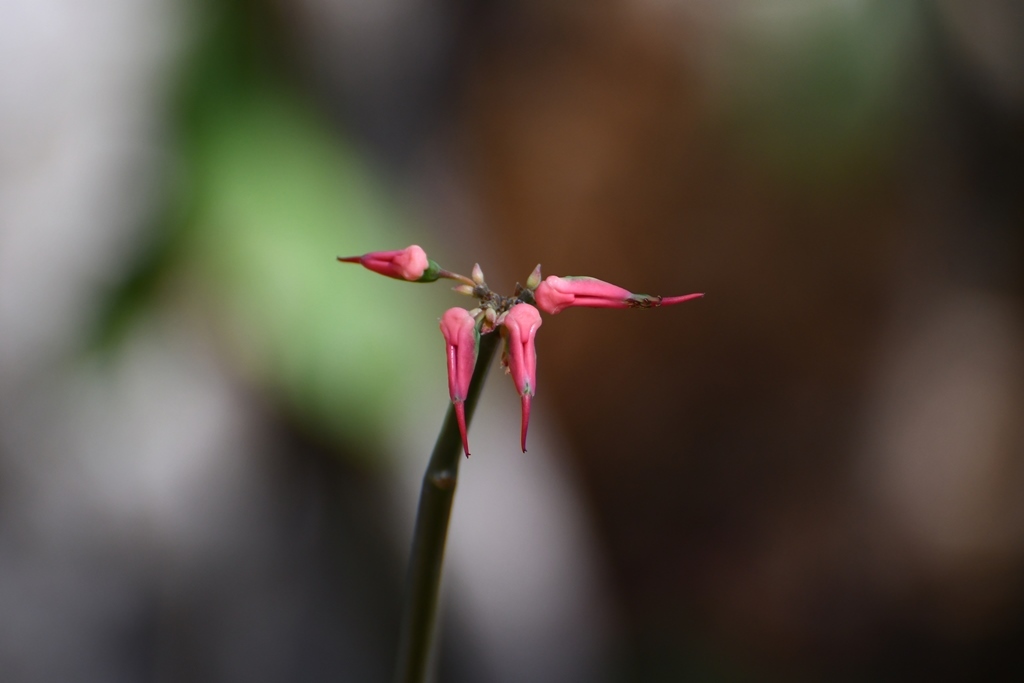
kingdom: Plantae
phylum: Tracheophyta
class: Magnoliopsida
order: Malpighiales
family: Euphorbiaceae
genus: Euphorbia
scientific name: Euphorbia tithymaloides
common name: Slipperplant
